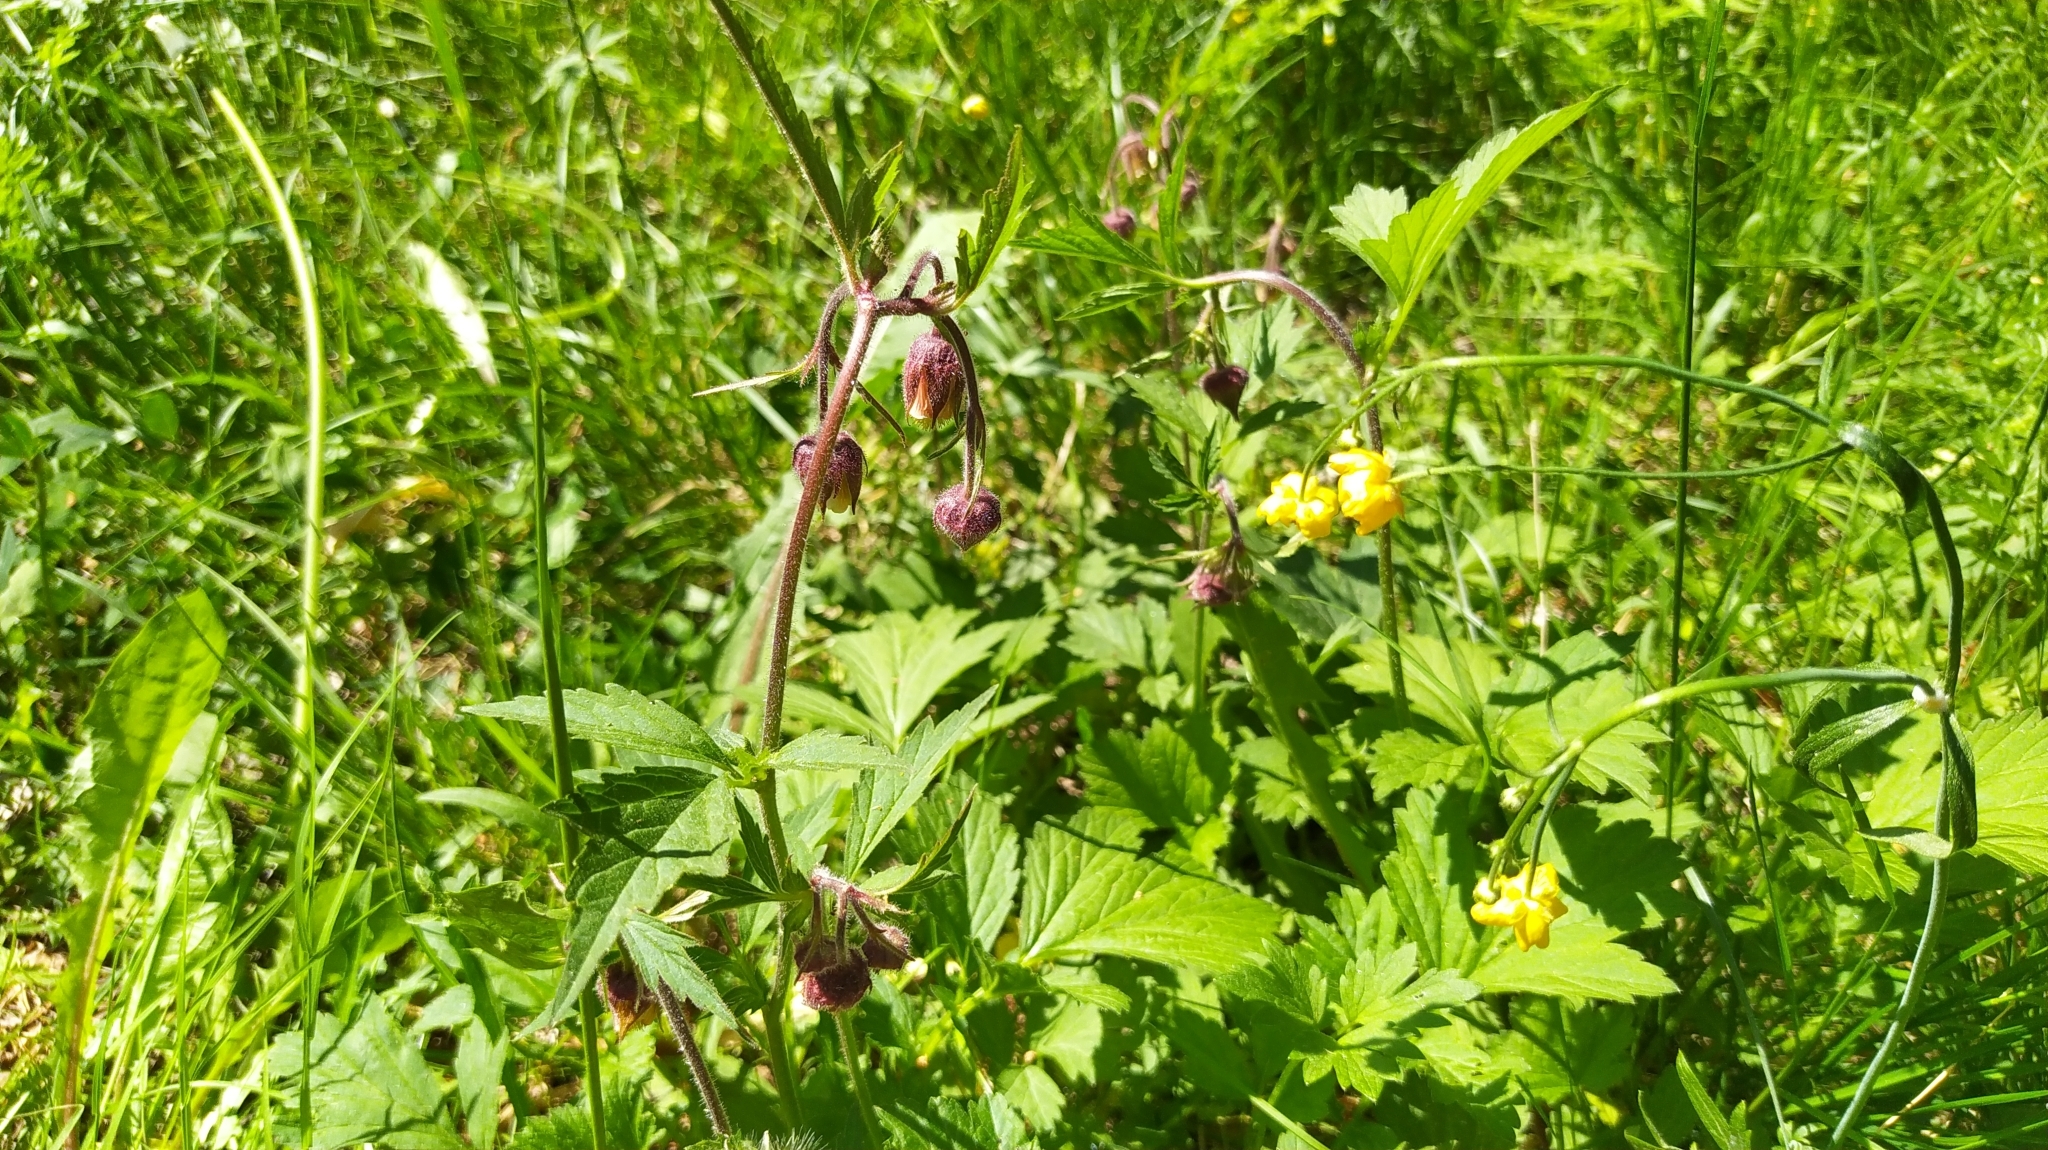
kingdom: Plantae
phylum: Tracheophyta
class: Magnoliopsida
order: Rosales
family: Rosaceae
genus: Geum
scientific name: Geum rivale
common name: Water avens
